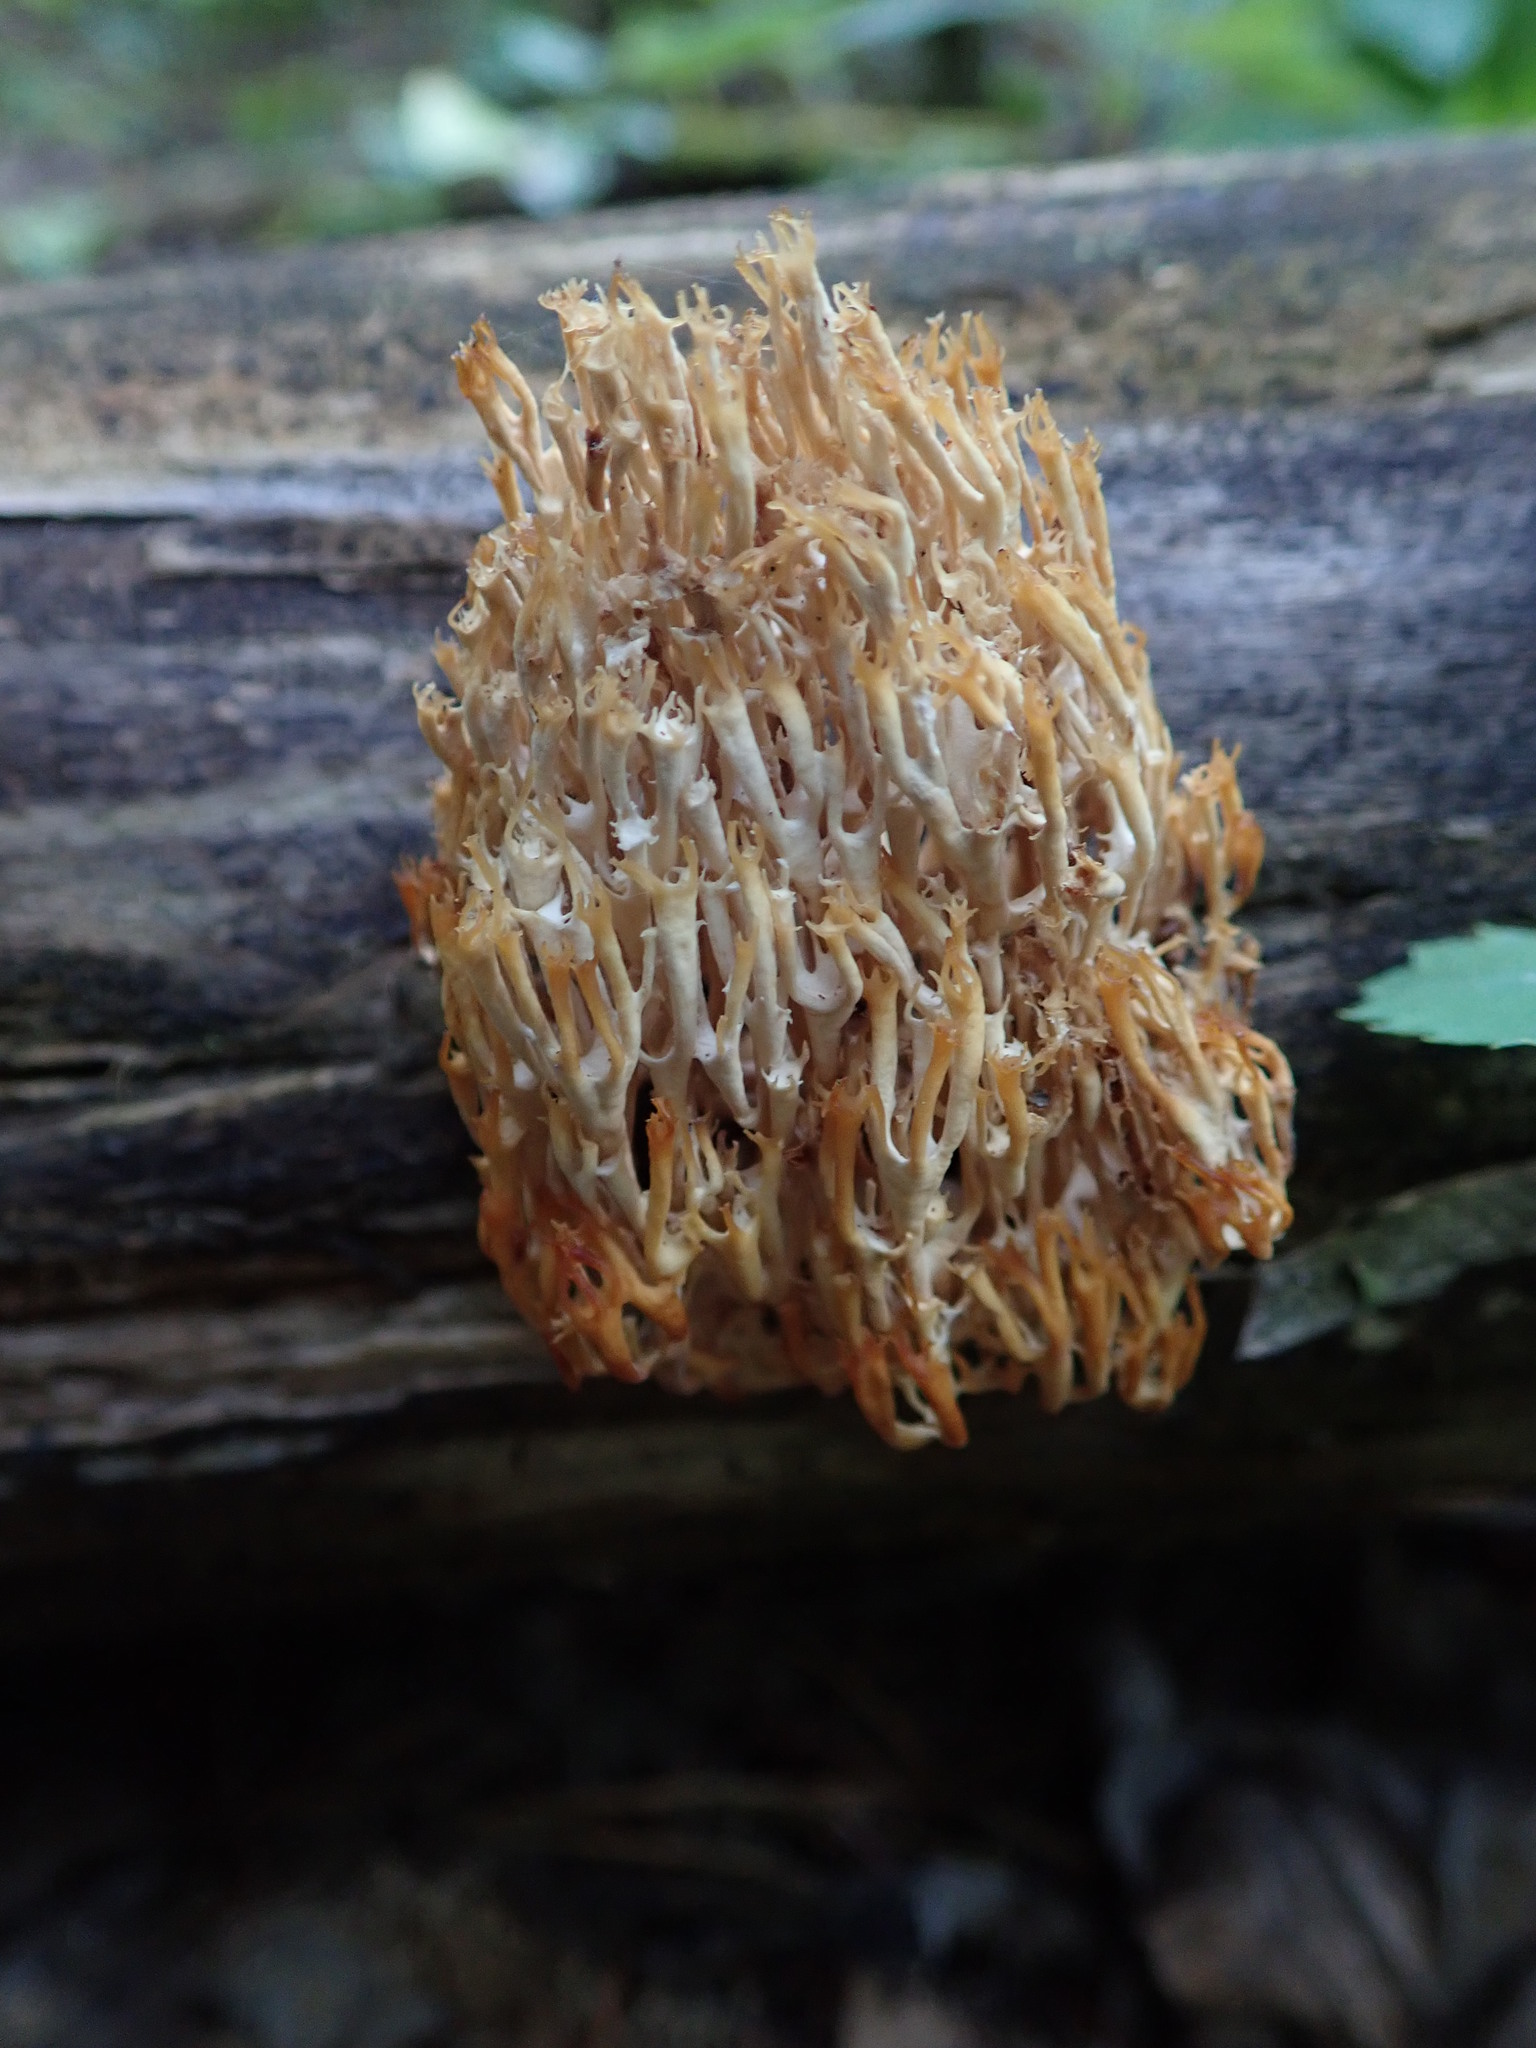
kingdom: Fungi
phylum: Basidiomycota
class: Agaricomycetes
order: Russulales
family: Auriscalpiaceae
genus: Artomyces
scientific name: Artomyces pyxidatus
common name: Crown-tipped coral fungus
